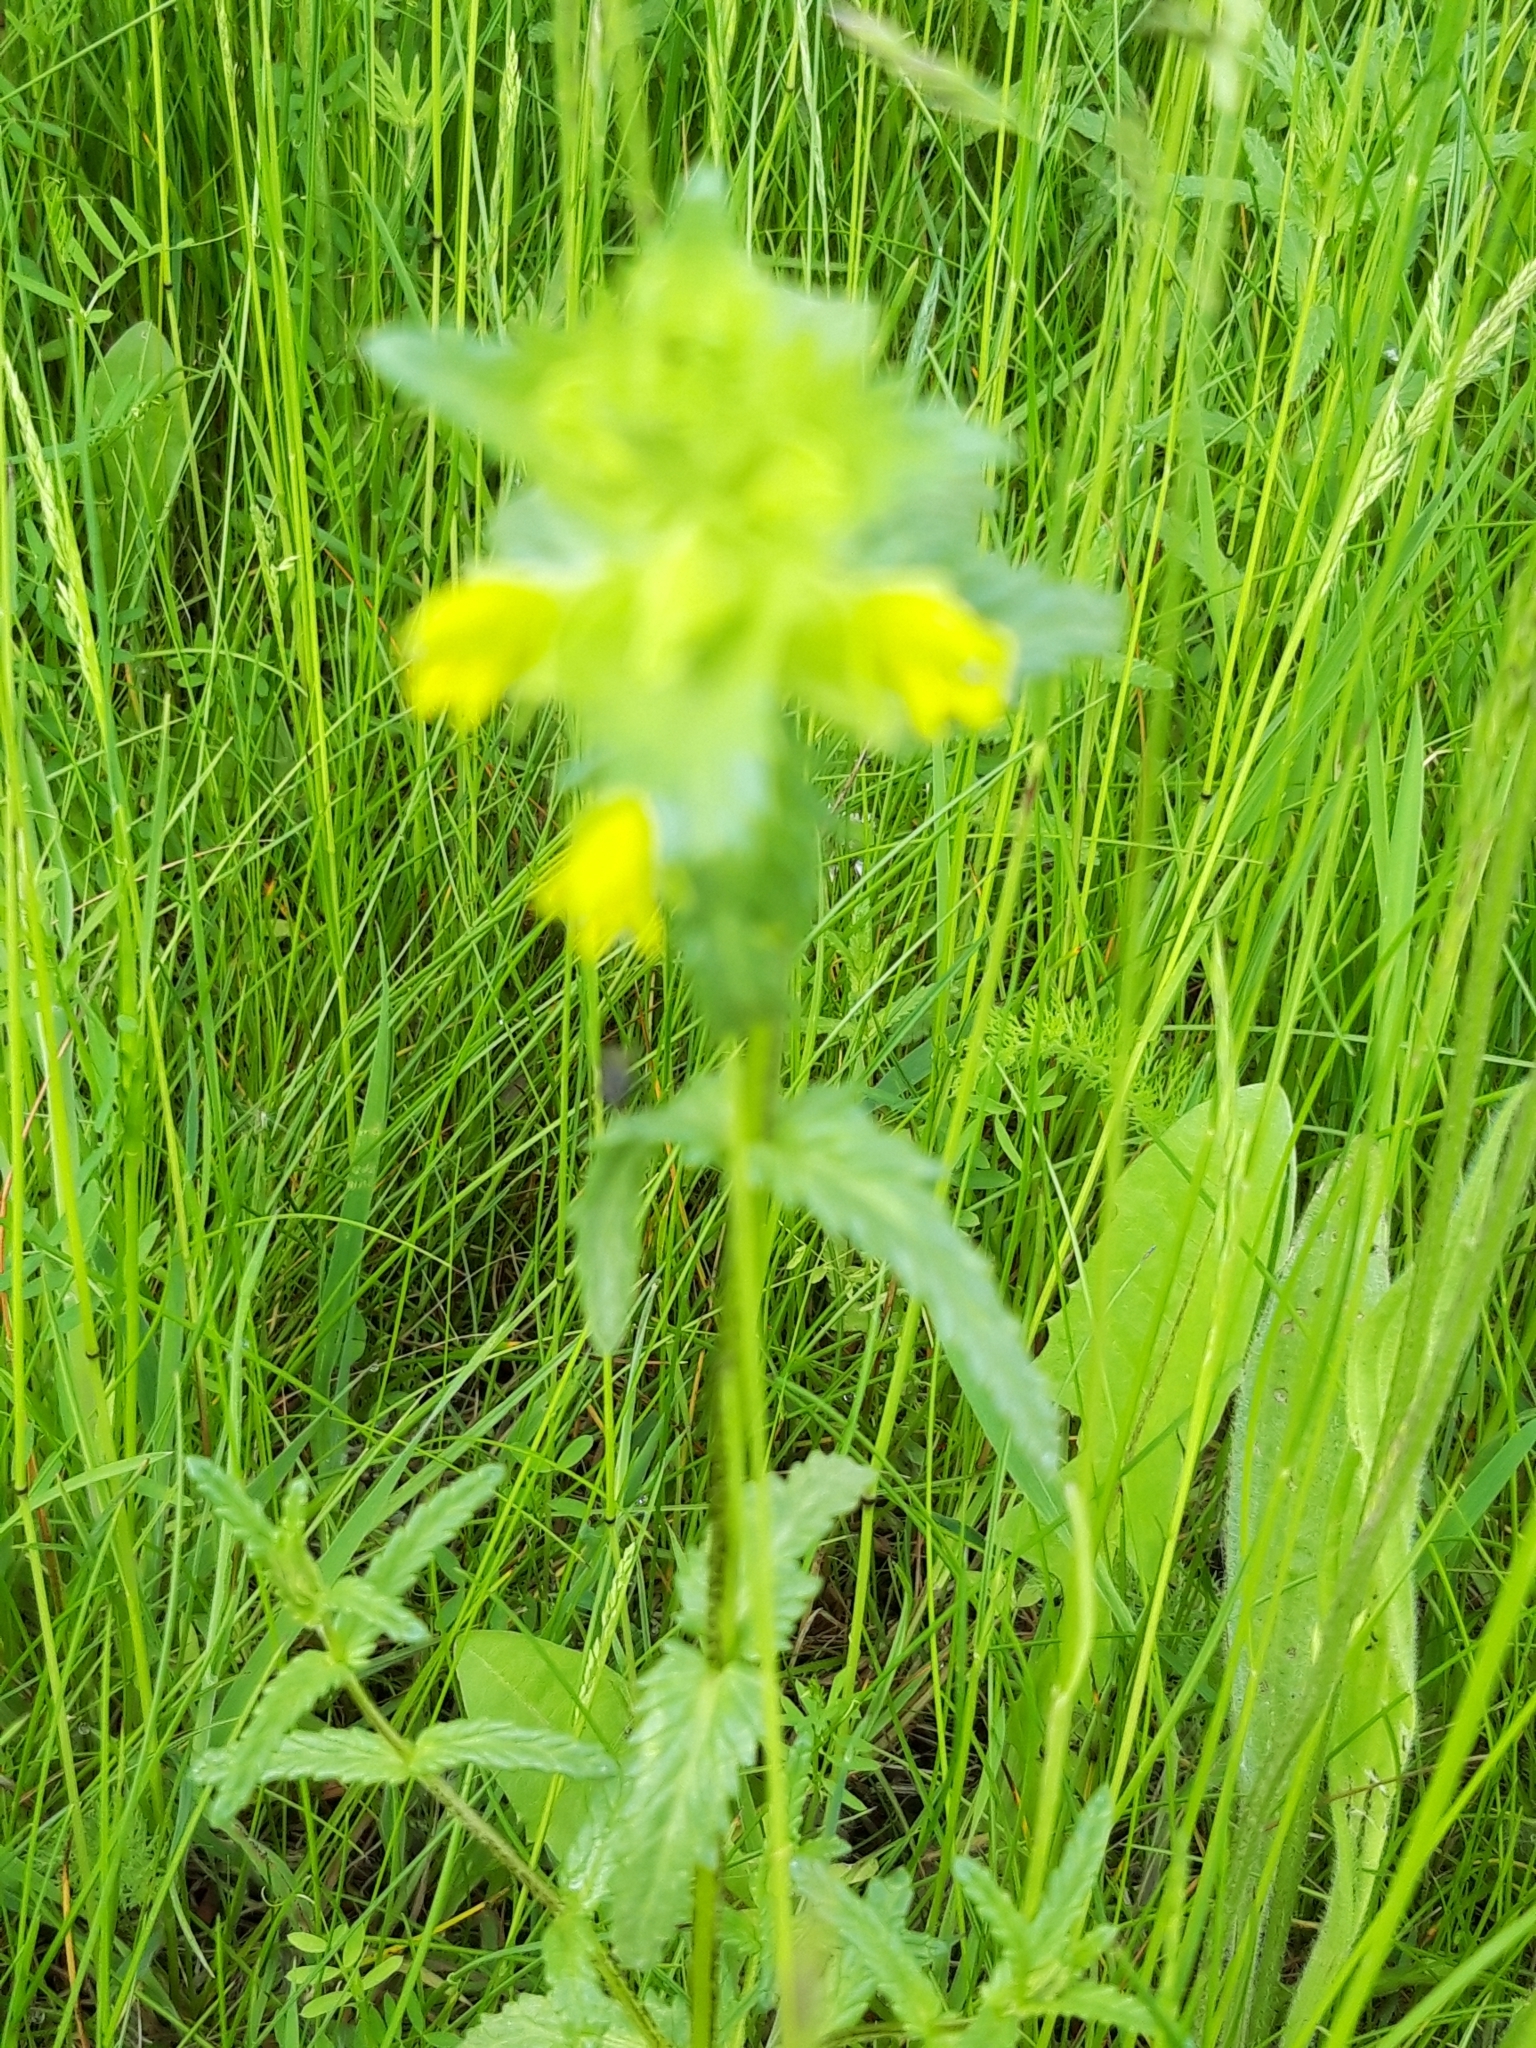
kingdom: Plantae
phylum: Tracheophyta
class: Magnoliopsida
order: Lamiales
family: Orobanchaceae
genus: Rhinanthus
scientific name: Rhinanthus minor
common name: Yellow-rattle
